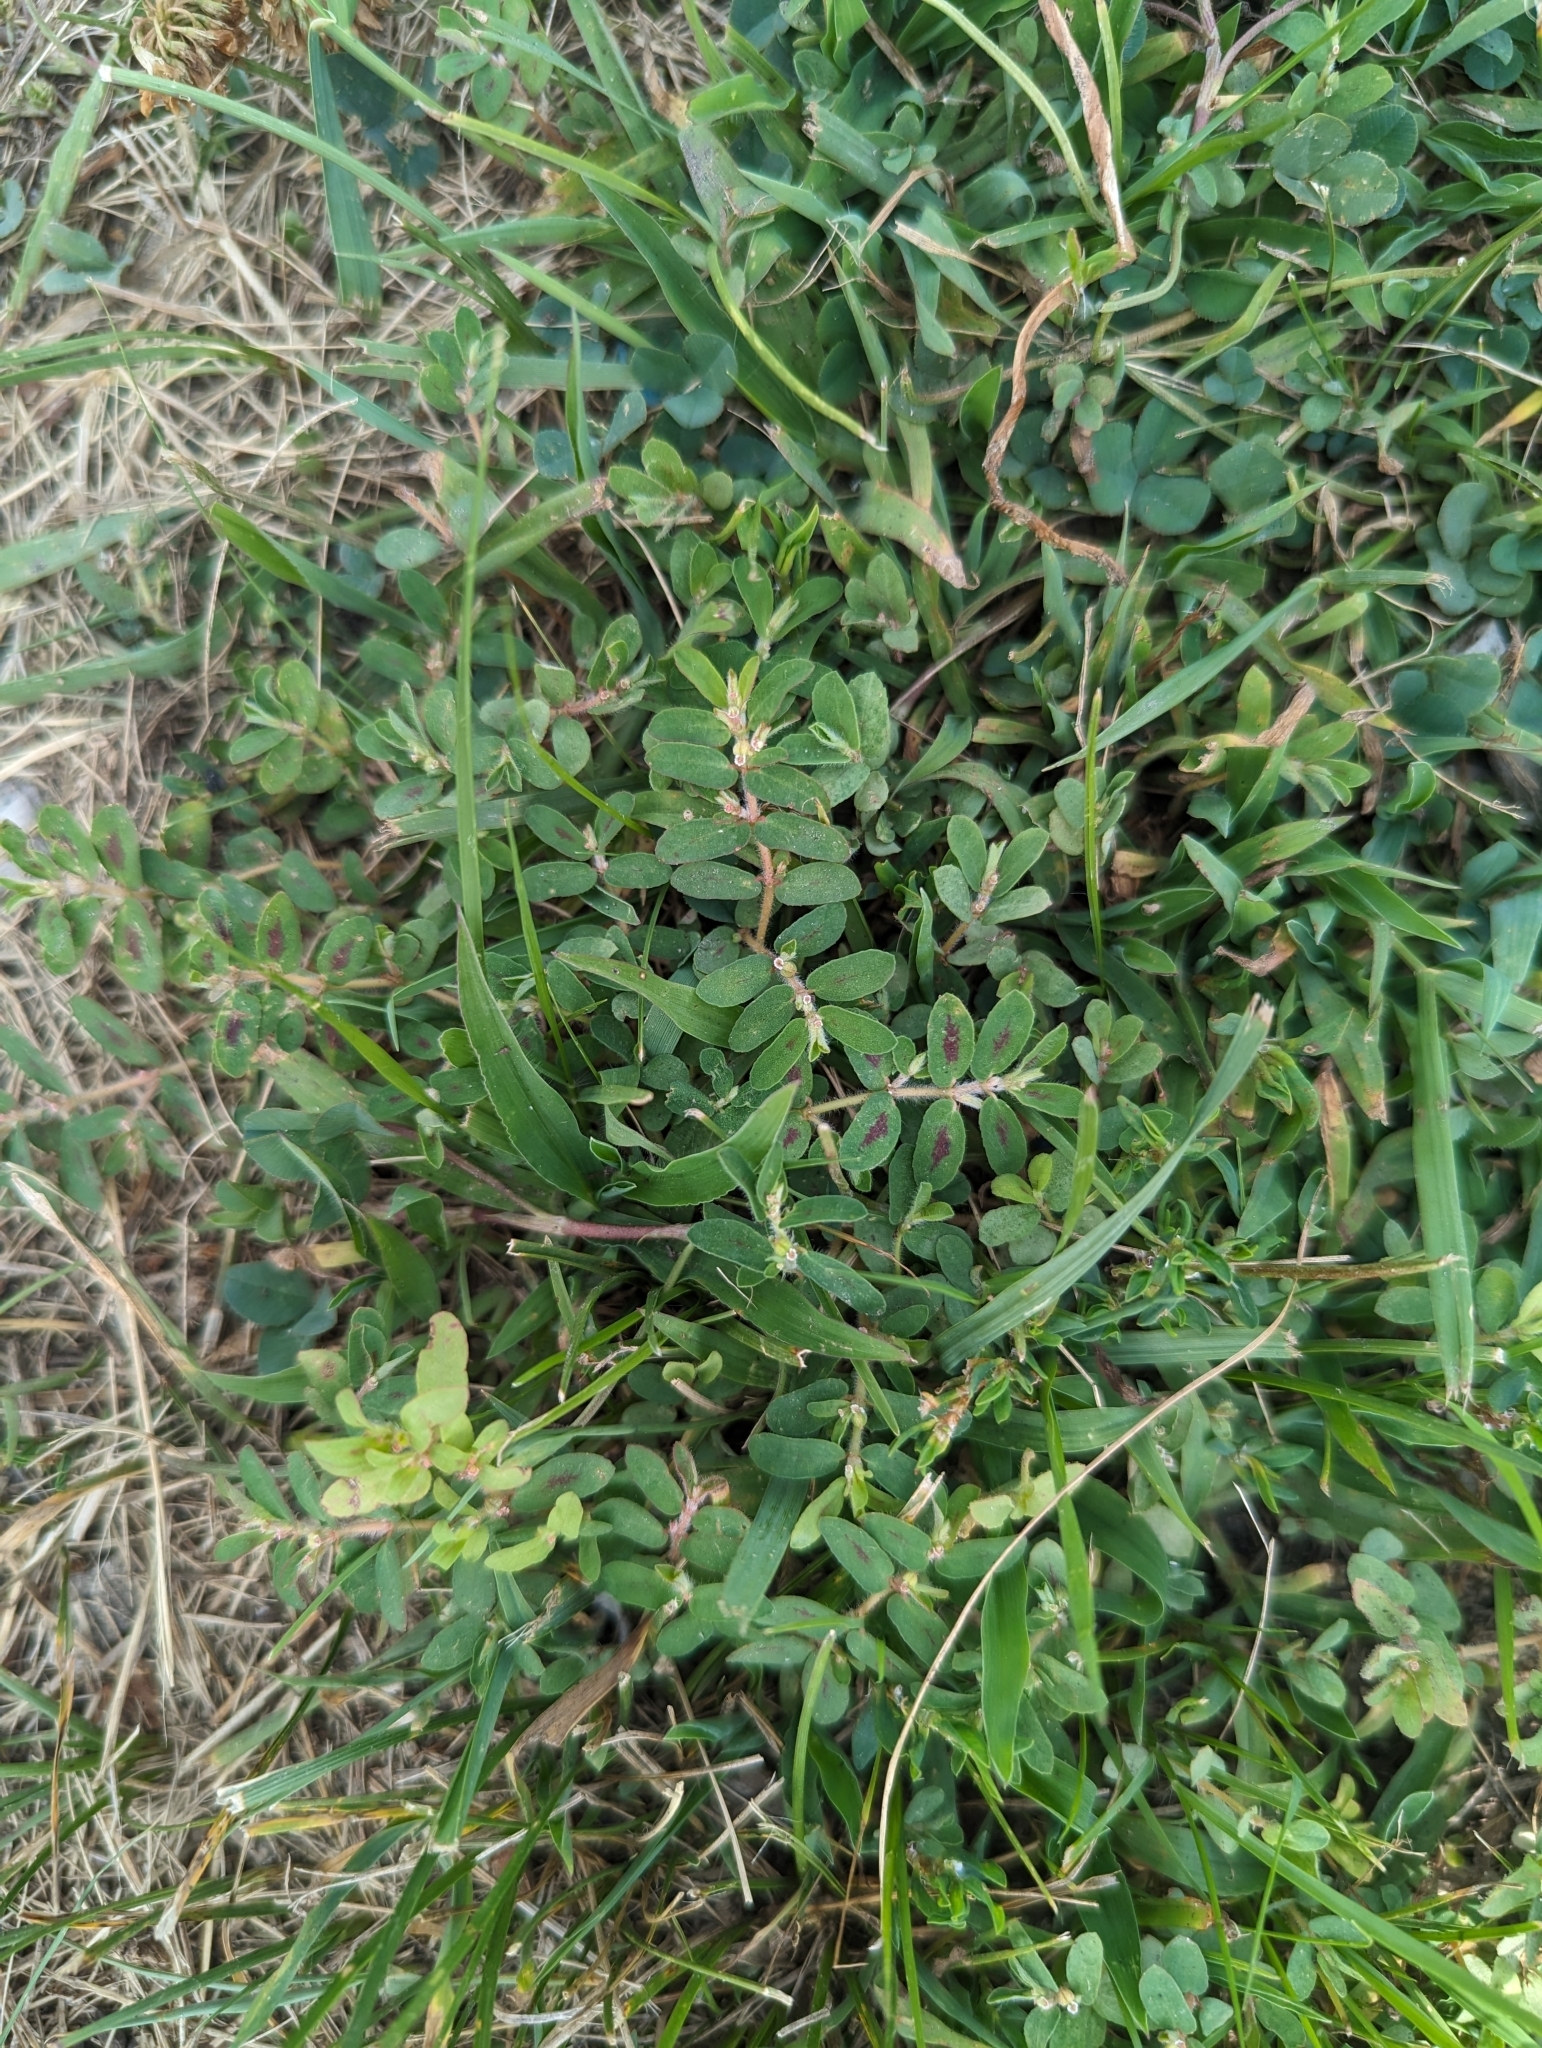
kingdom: Plantae
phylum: Tracheophyta
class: Magnoliopsida
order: Malpighiales
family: Euphorbiaceae
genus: Euphorbia
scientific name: Euphorbia maculata
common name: Spotted spurge
